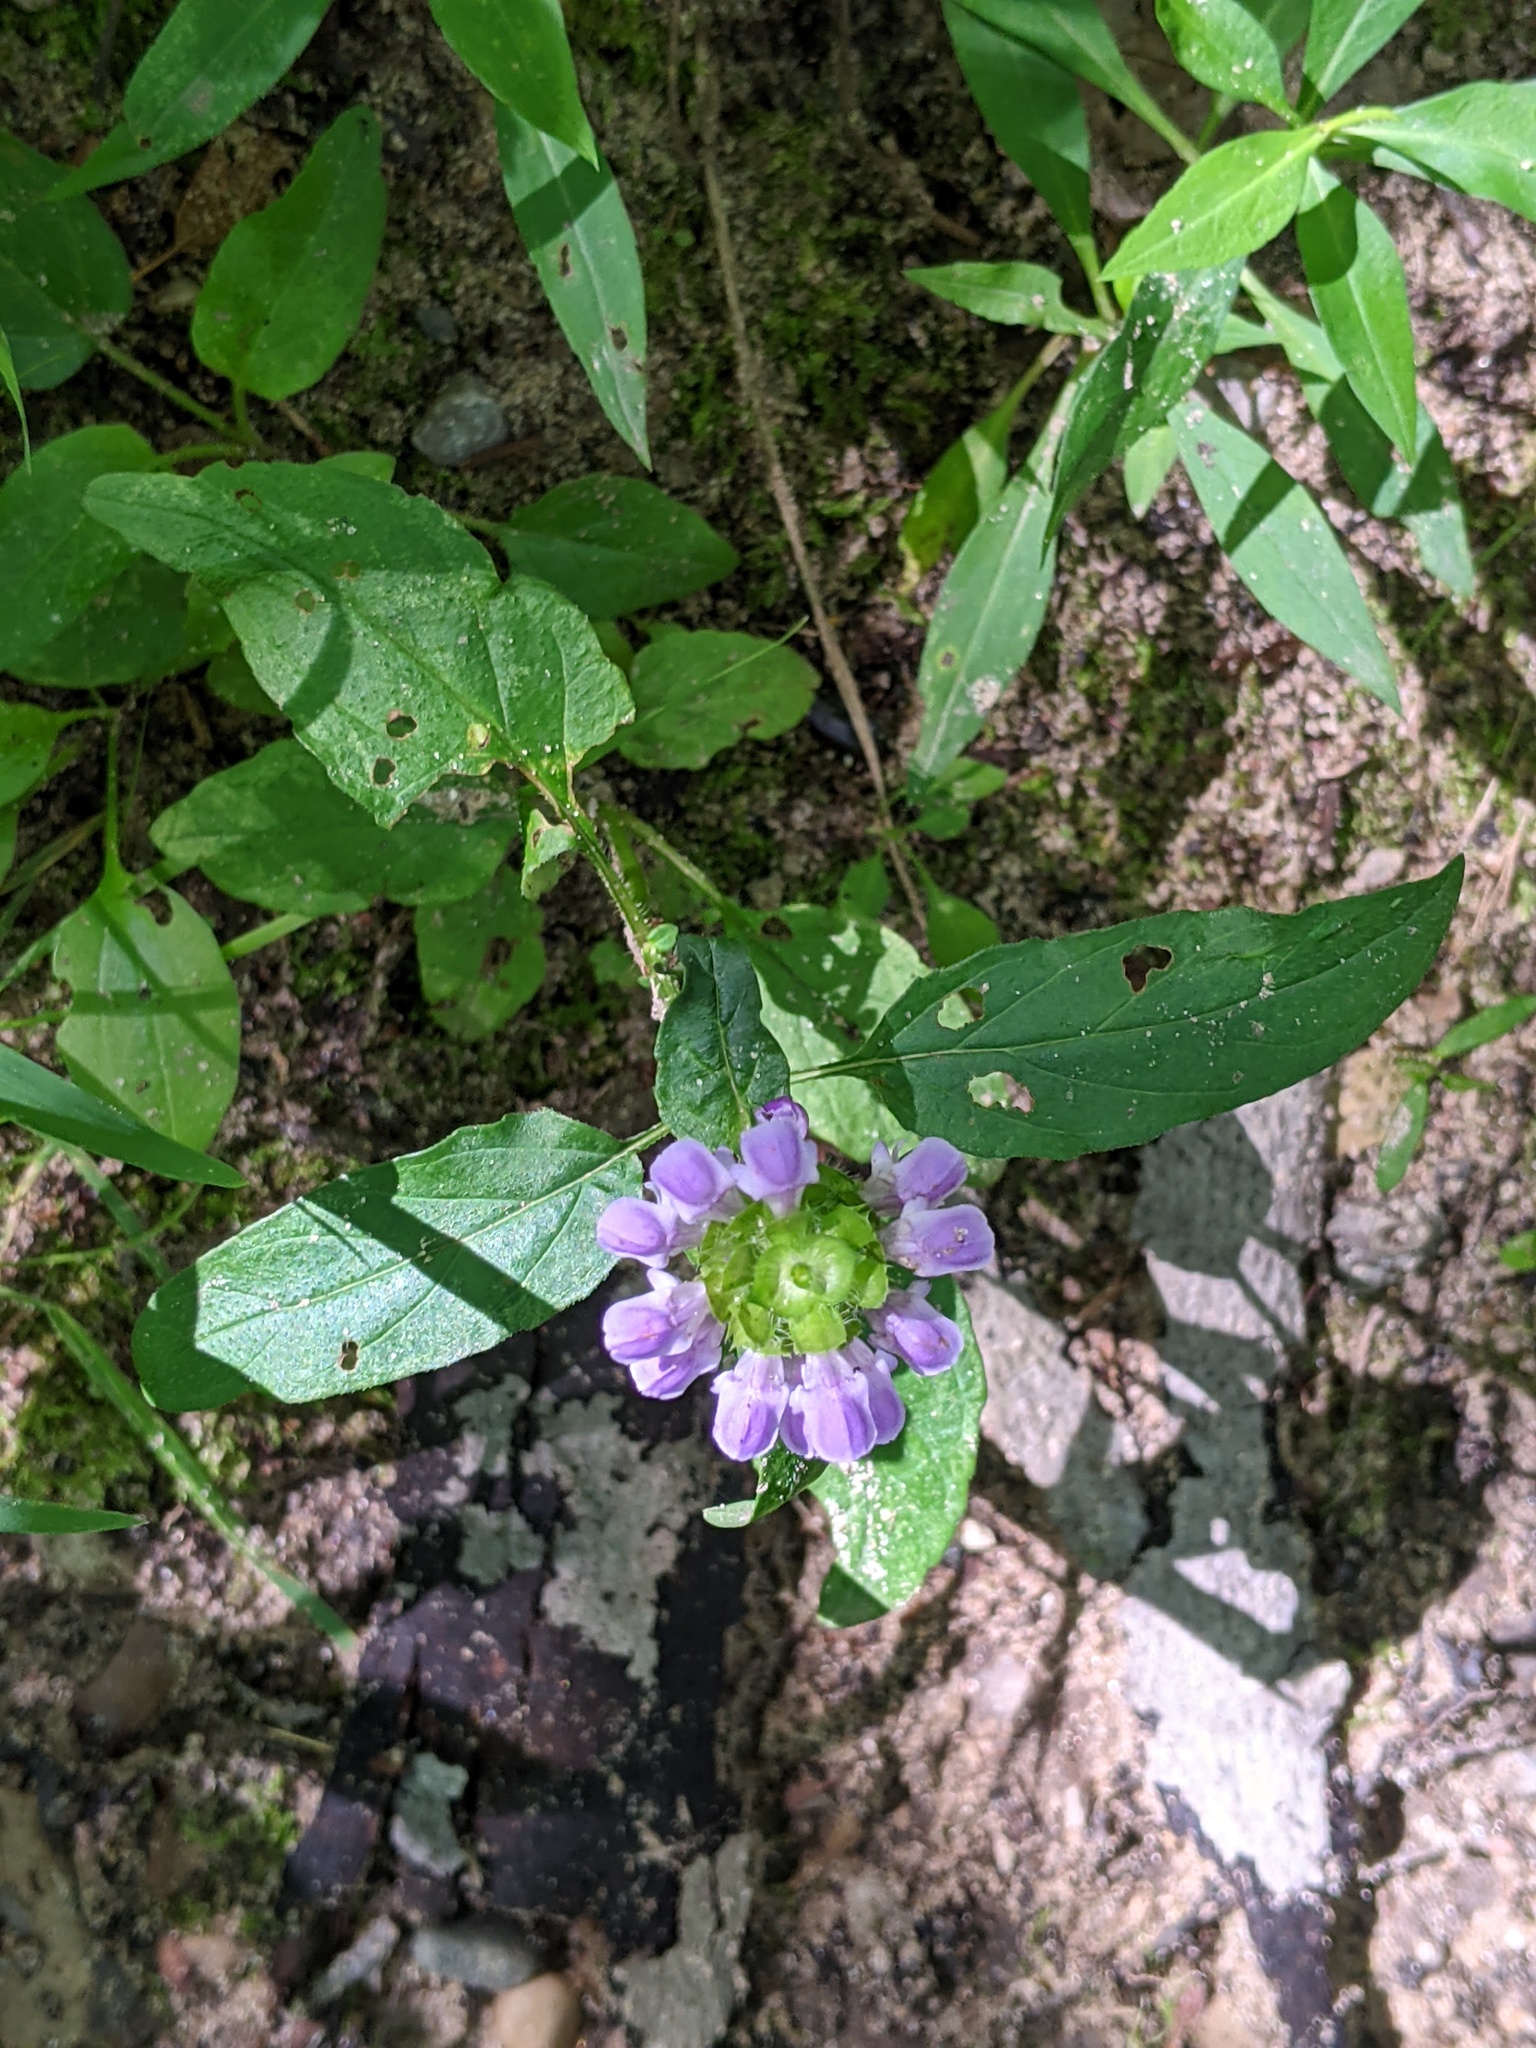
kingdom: Plantae
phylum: Tracheophyta
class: Magnoliopsida
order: Lamiales
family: Lamiaceae
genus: Prunella
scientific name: Prunella vulgaris
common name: Heal-all
